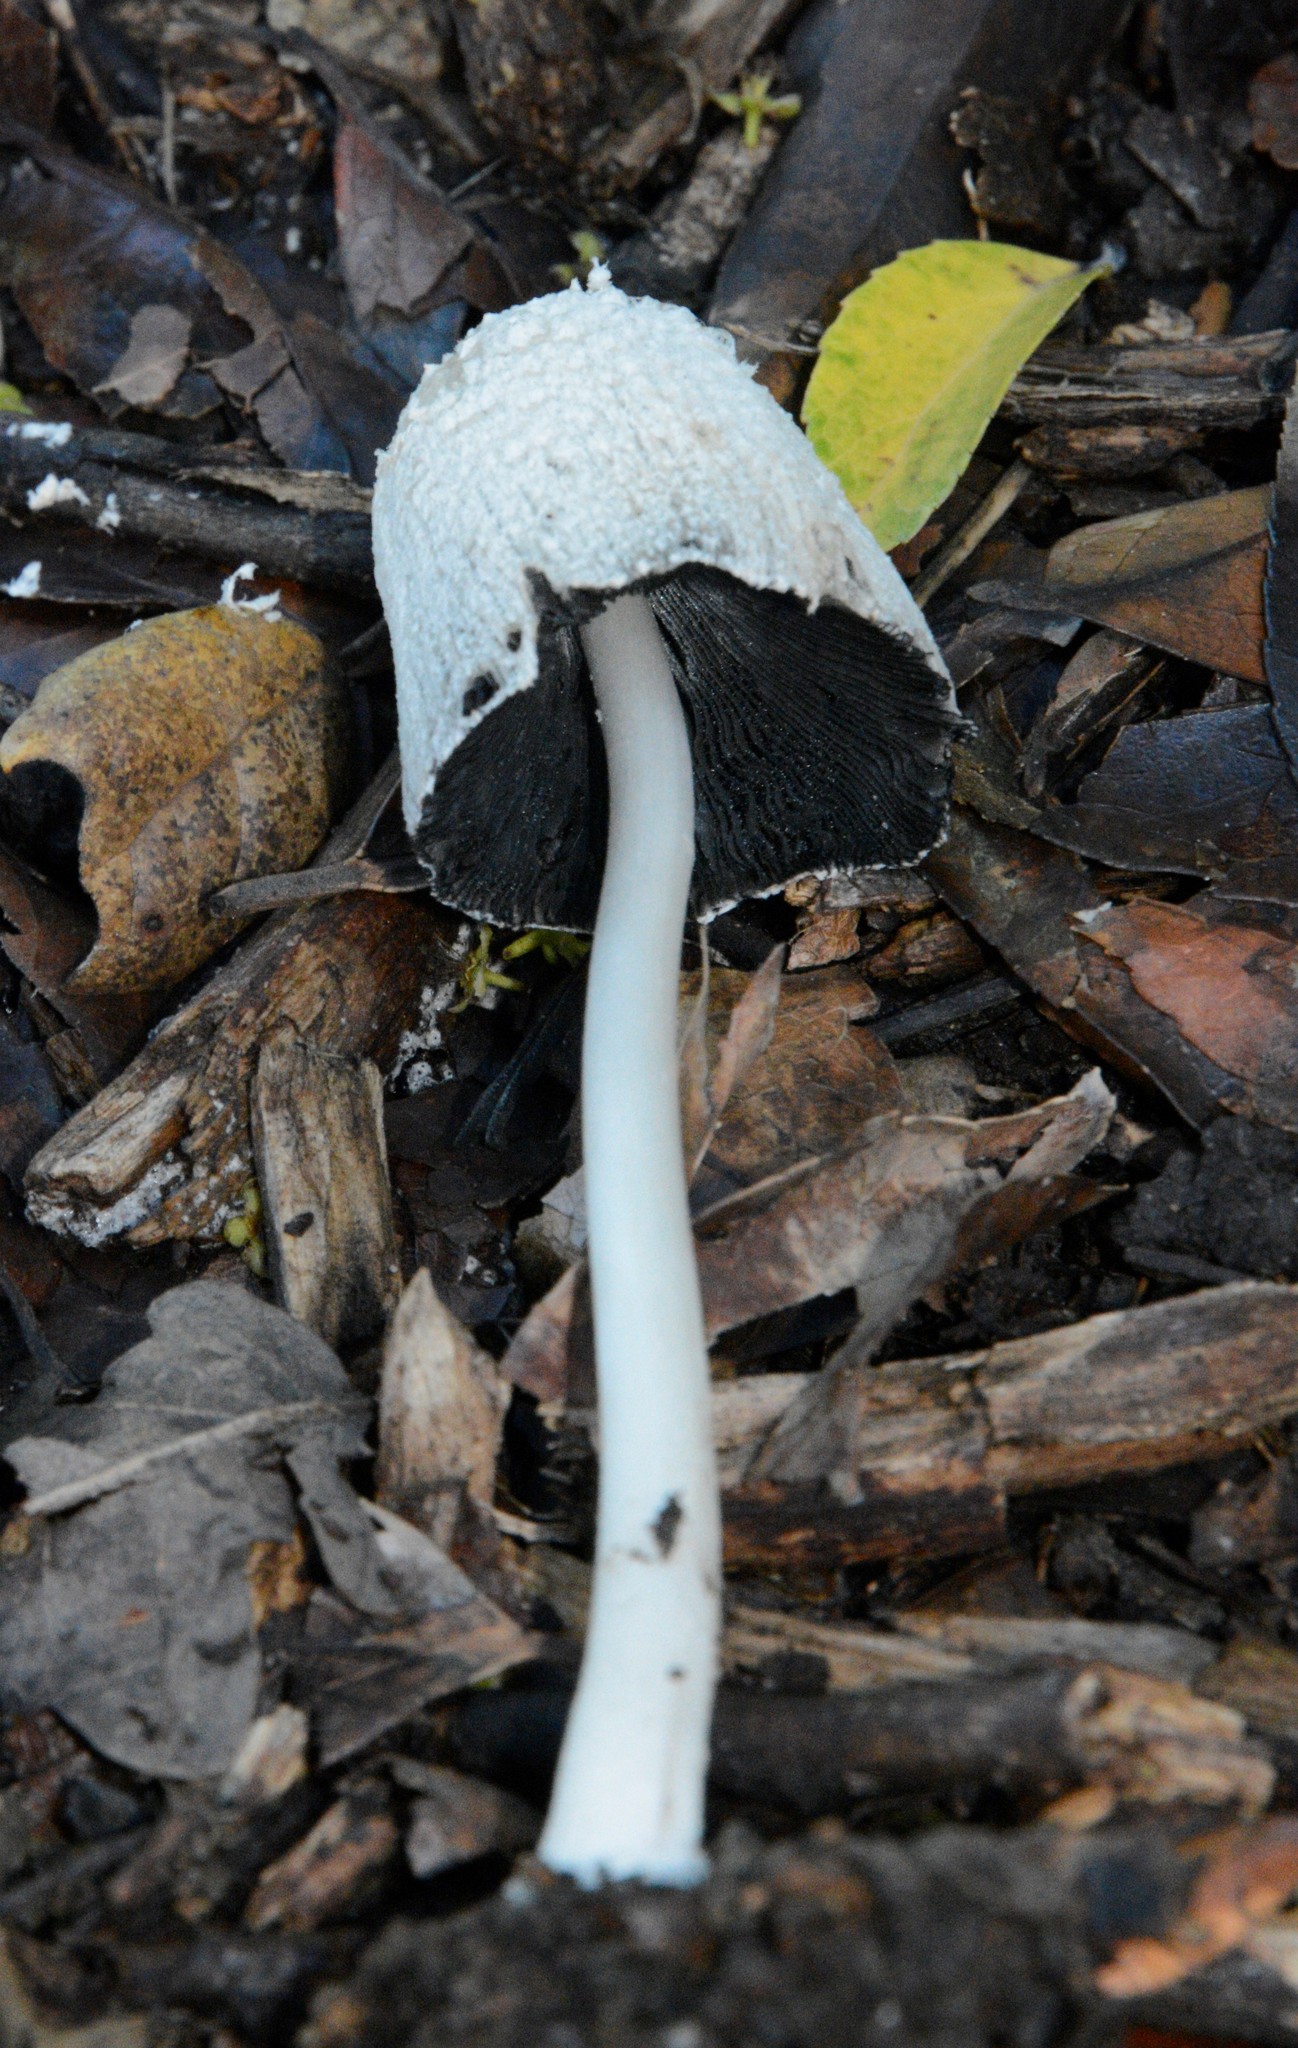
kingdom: Fungi
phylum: Basidiomycota
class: Agaricomycetes
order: Agaricales
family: Psathyrellaceae
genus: Coprinellus
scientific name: Coprinellus flocculosus
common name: Flocculose inkcap
